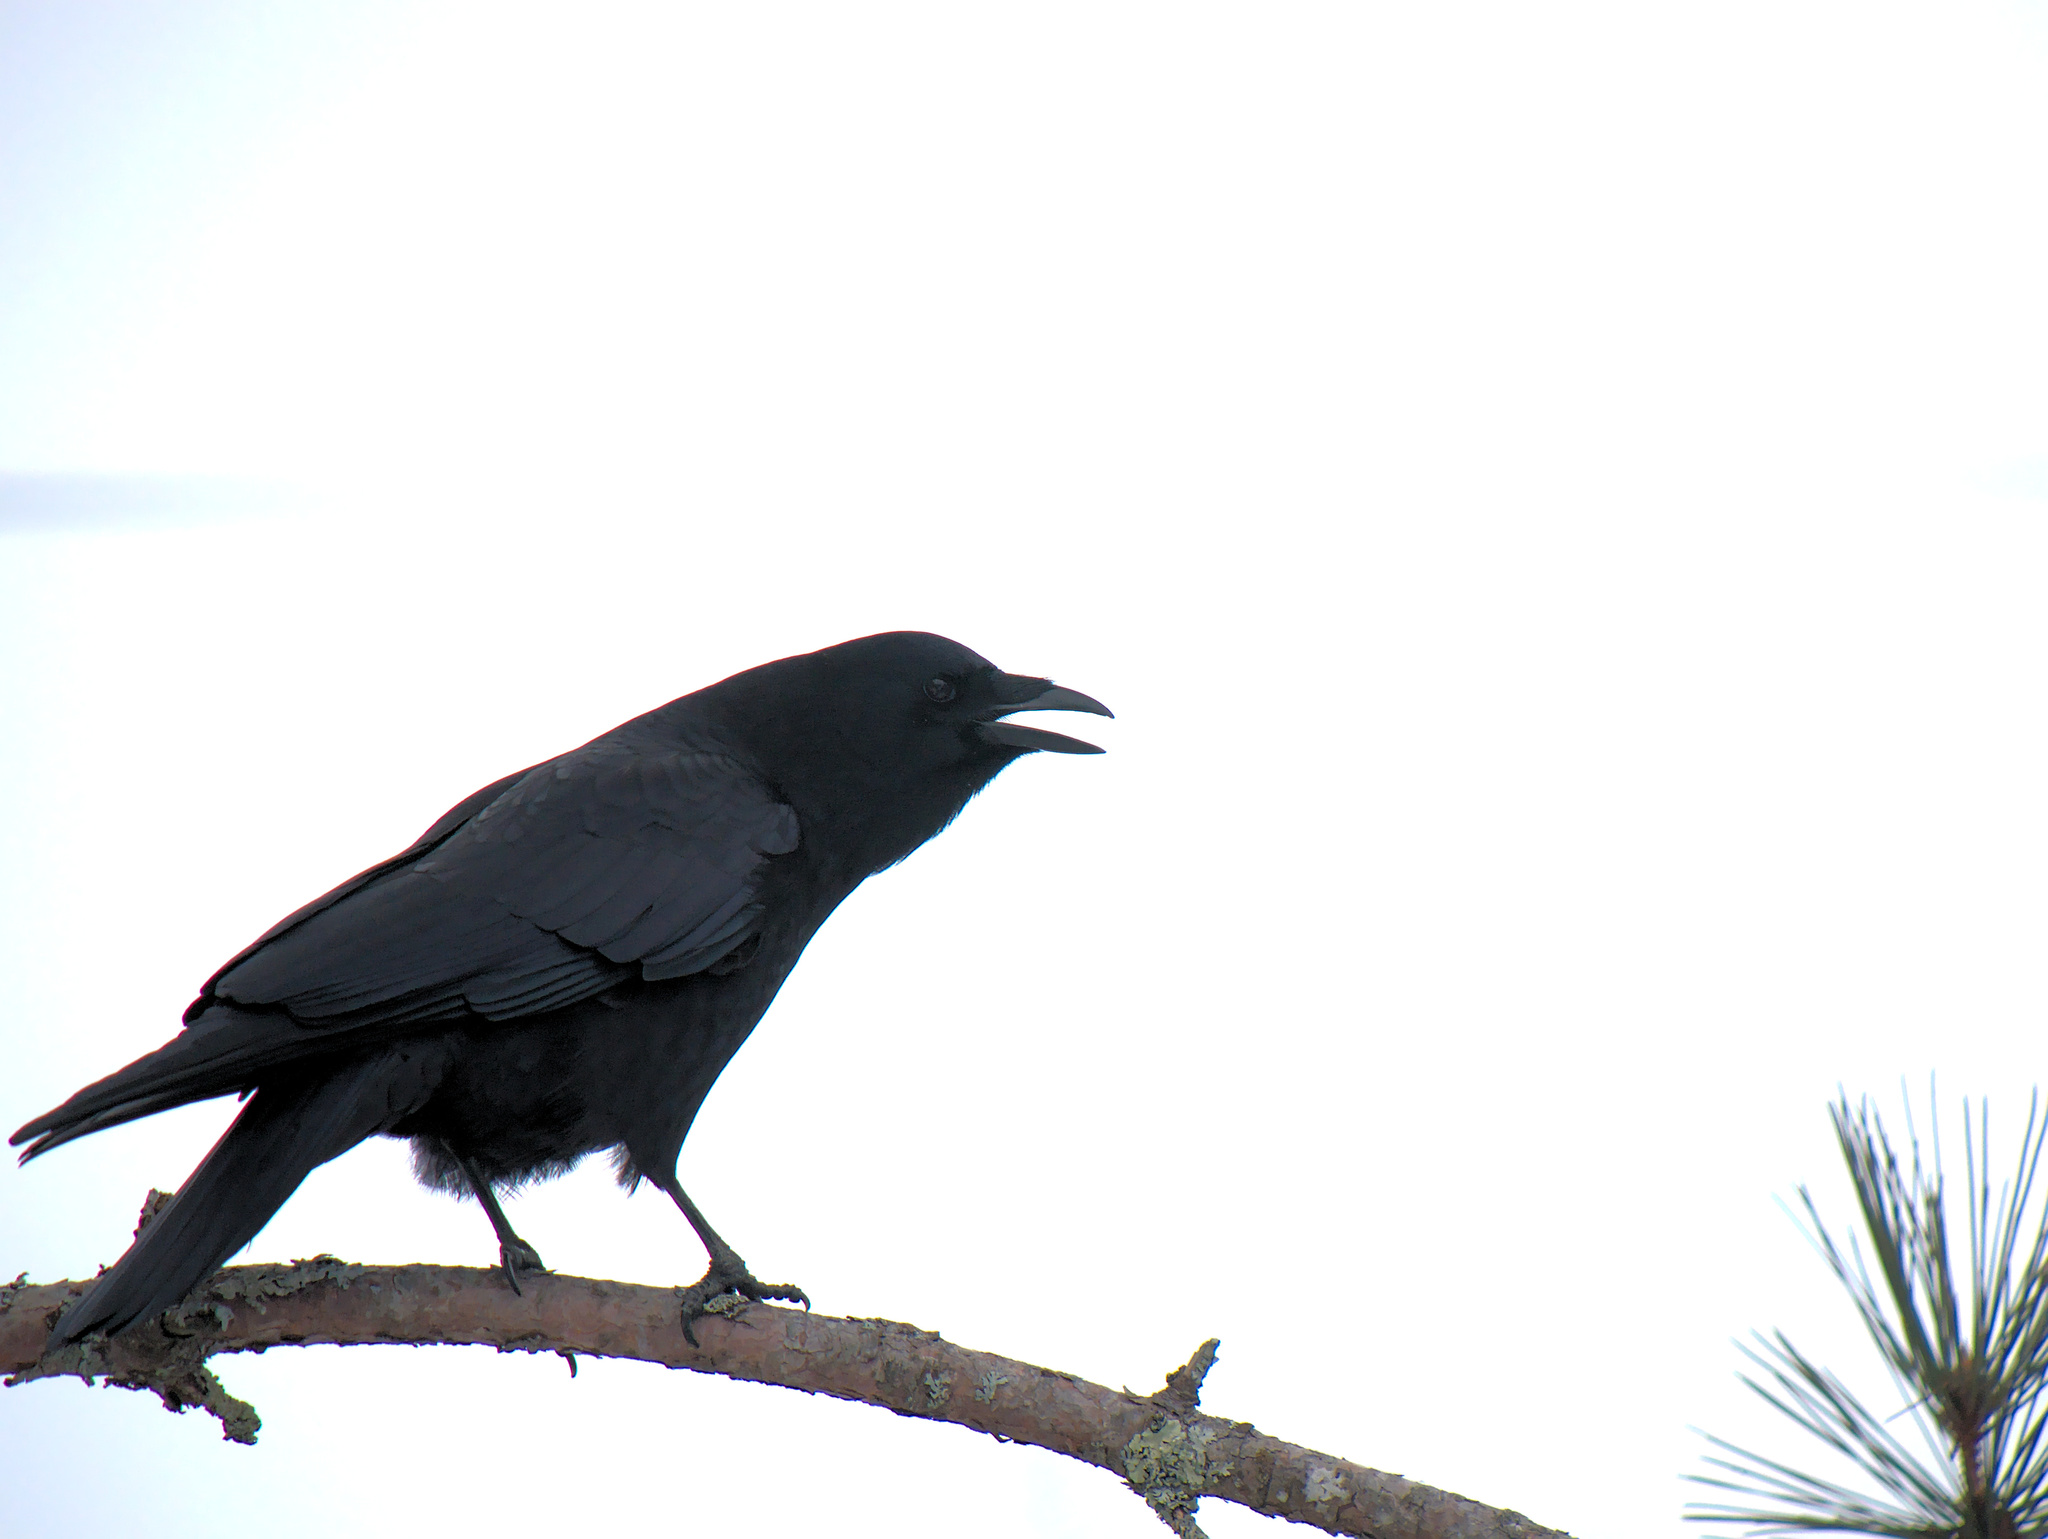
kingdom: Animalia
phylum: Chordata
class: Aves
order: Passeriformes
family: Corvidae
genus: Corvus
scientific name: Corvus brachyrhynchos
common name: American crow
